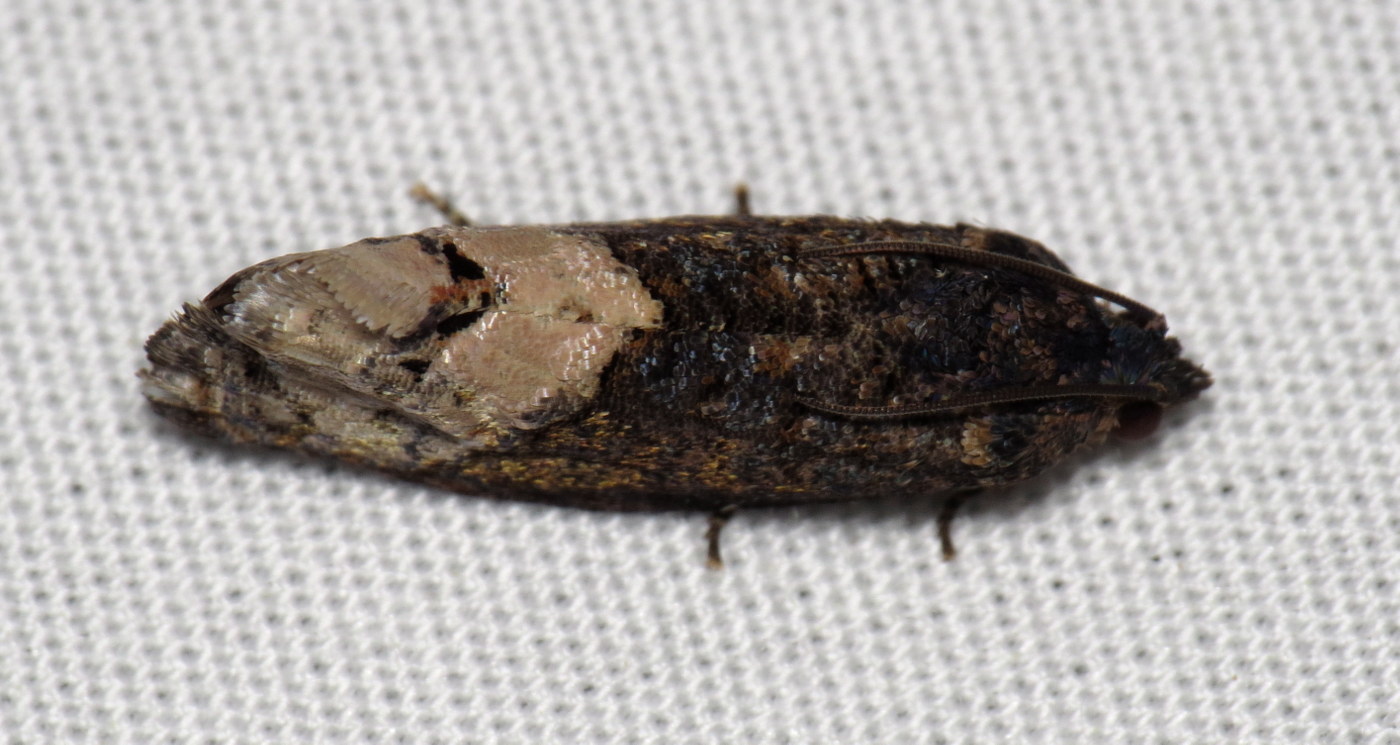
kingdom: Animalia
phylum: Arthropoda
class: Insecta
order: Lepidoptera
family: Tortricidae
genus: Ecdytolopha
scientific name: Ecdytolopha insiticiana
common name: Locust twig borer moth
